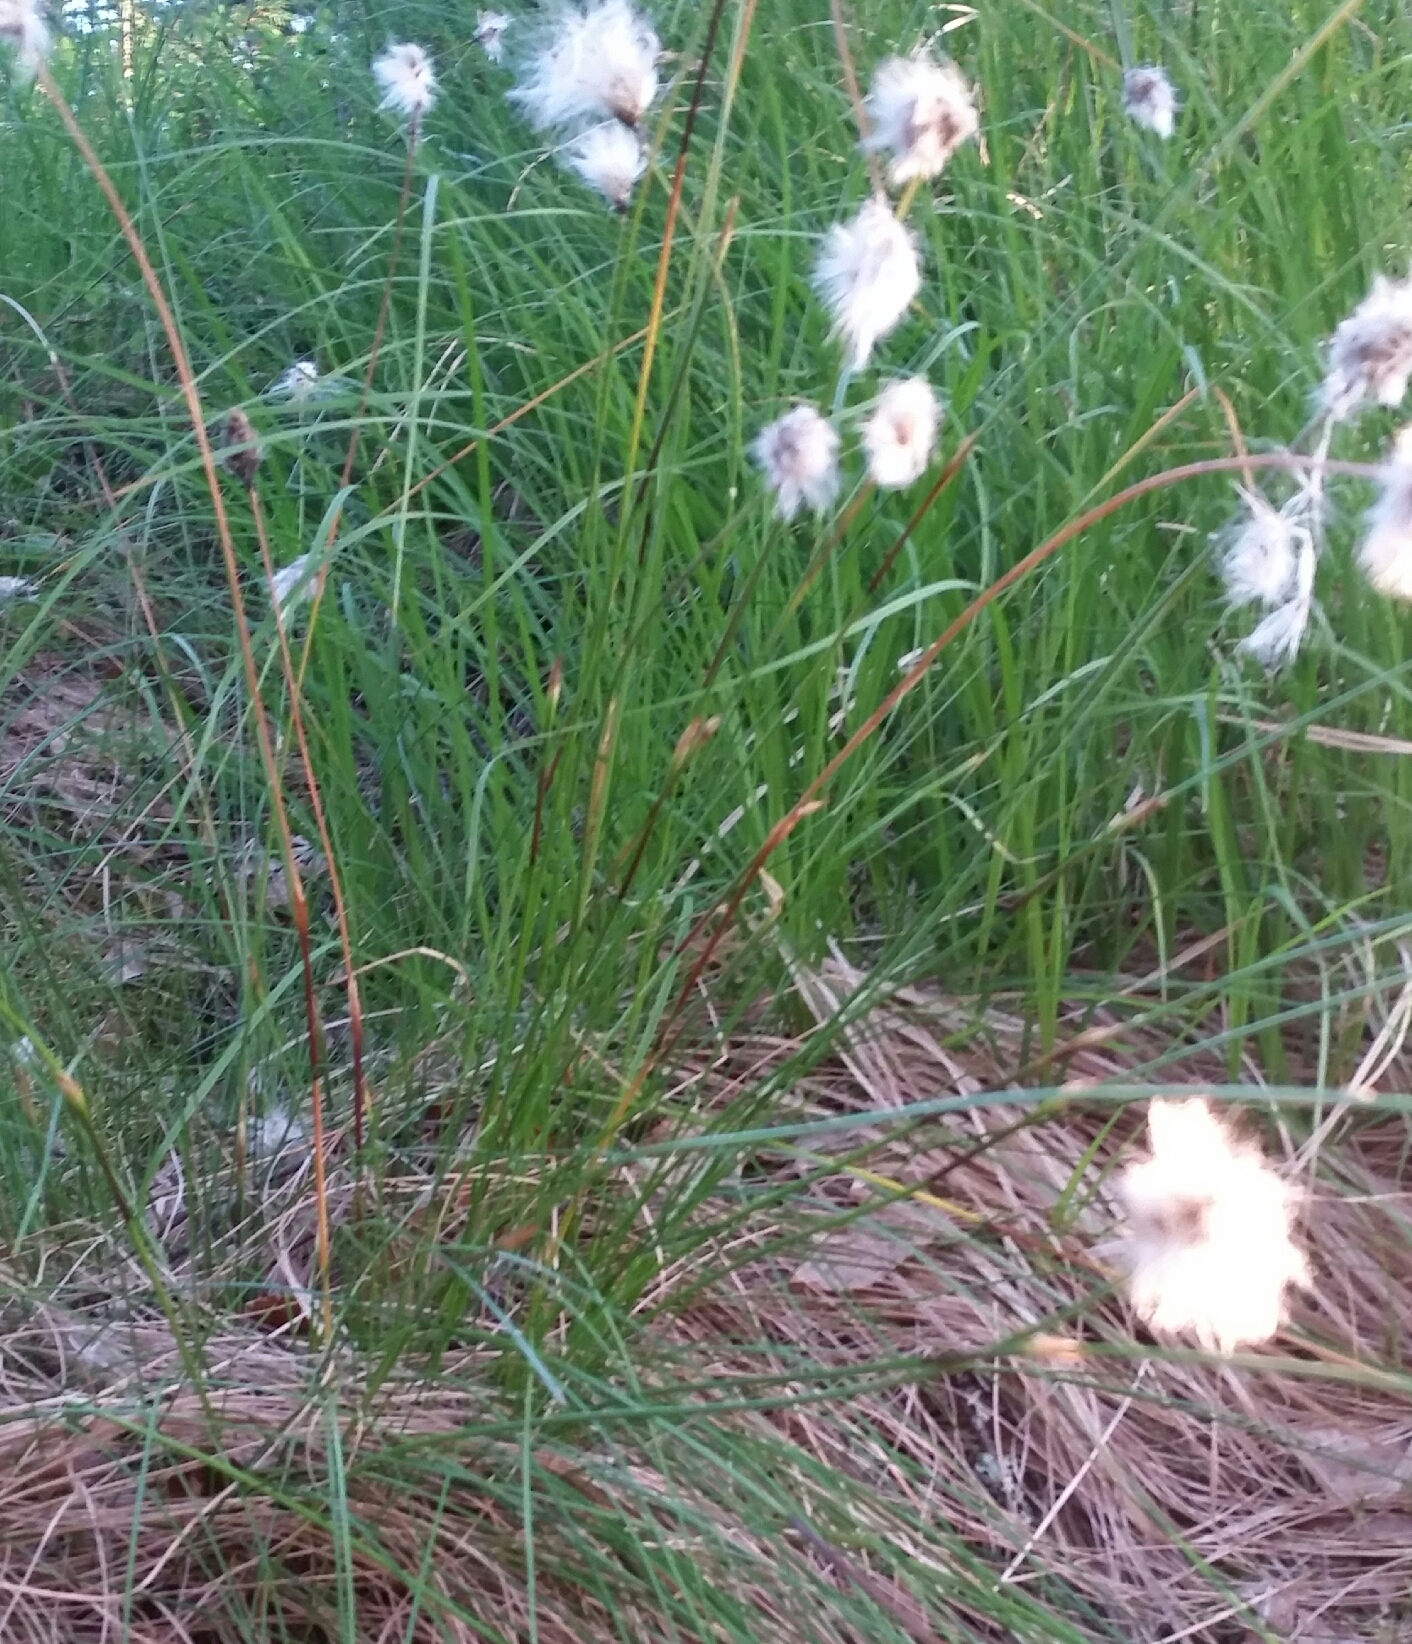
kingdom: Plantae
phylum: Tracheophyta
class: Liliopsida
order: Poales
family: Cyperaceae
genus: Eriophorum
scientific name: Eriophorum vaginatum
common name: Hare's-tail cottongrass
